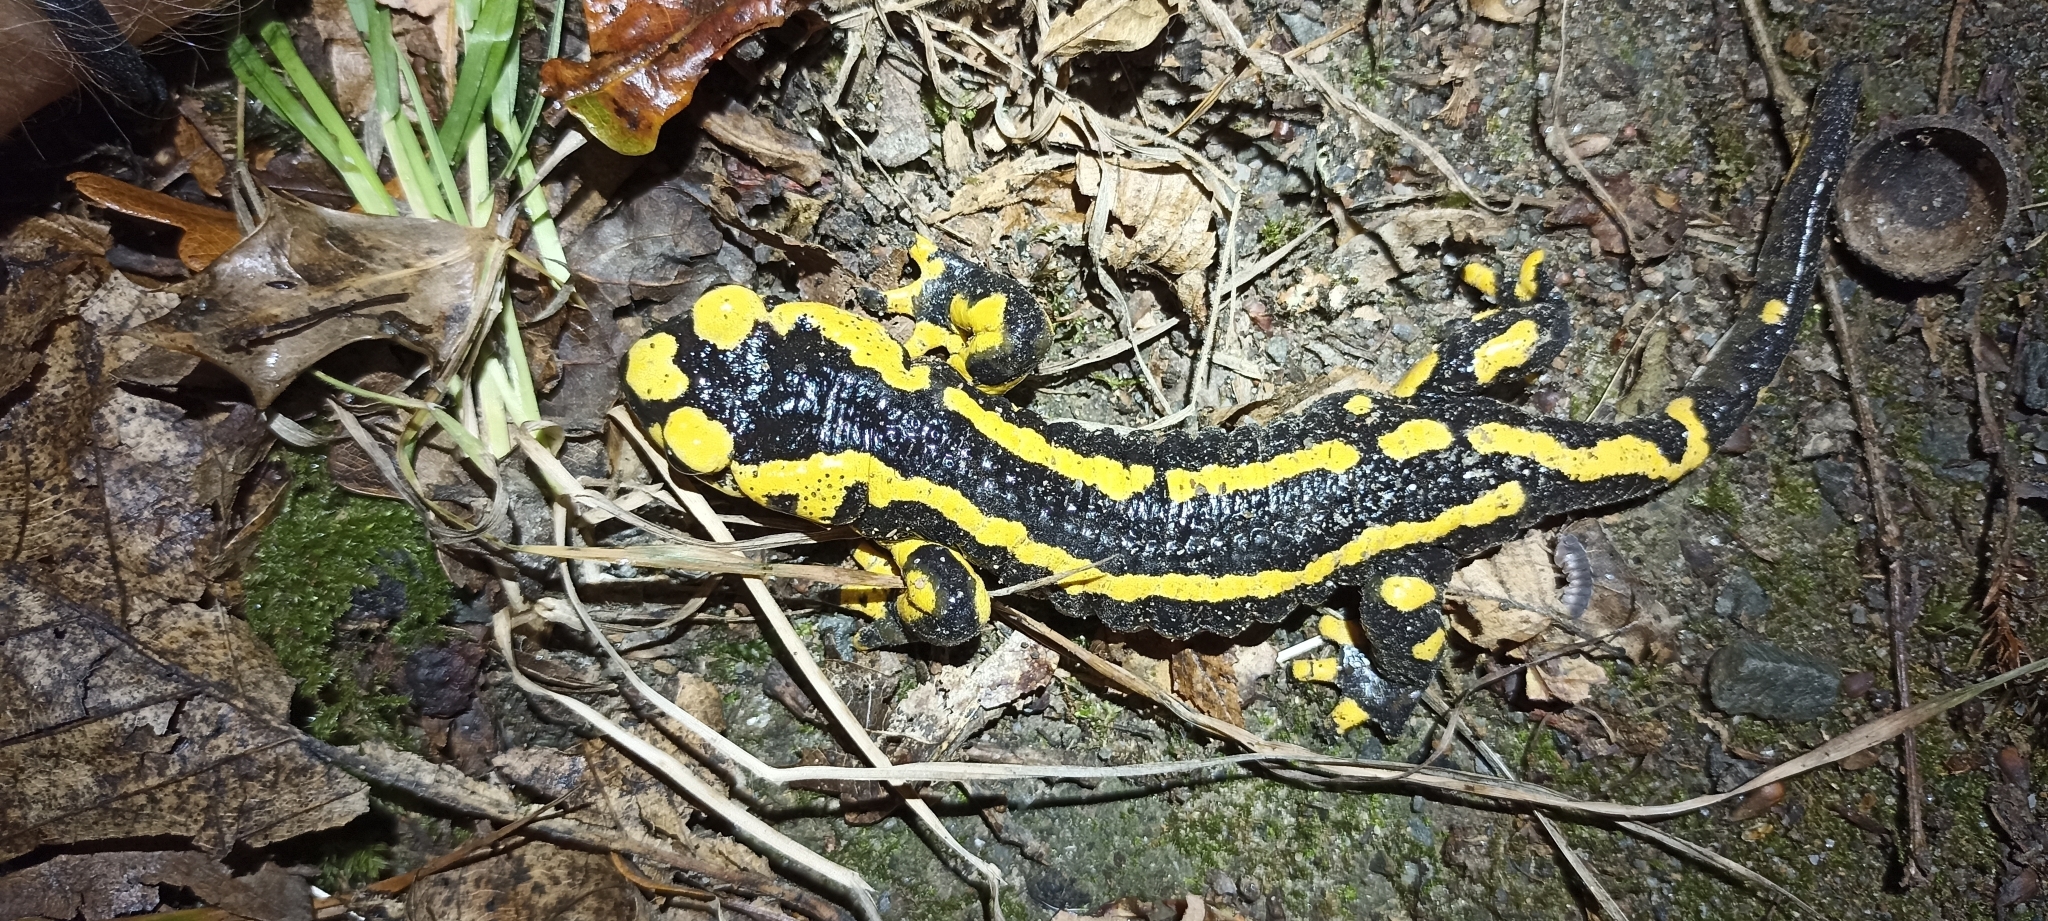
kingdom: Animalia
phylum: Chordata
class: Amphibia
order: Caudata
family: Salamandridae
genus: Salamandra
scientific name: Salamandra salamandra
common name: Fire salamander
